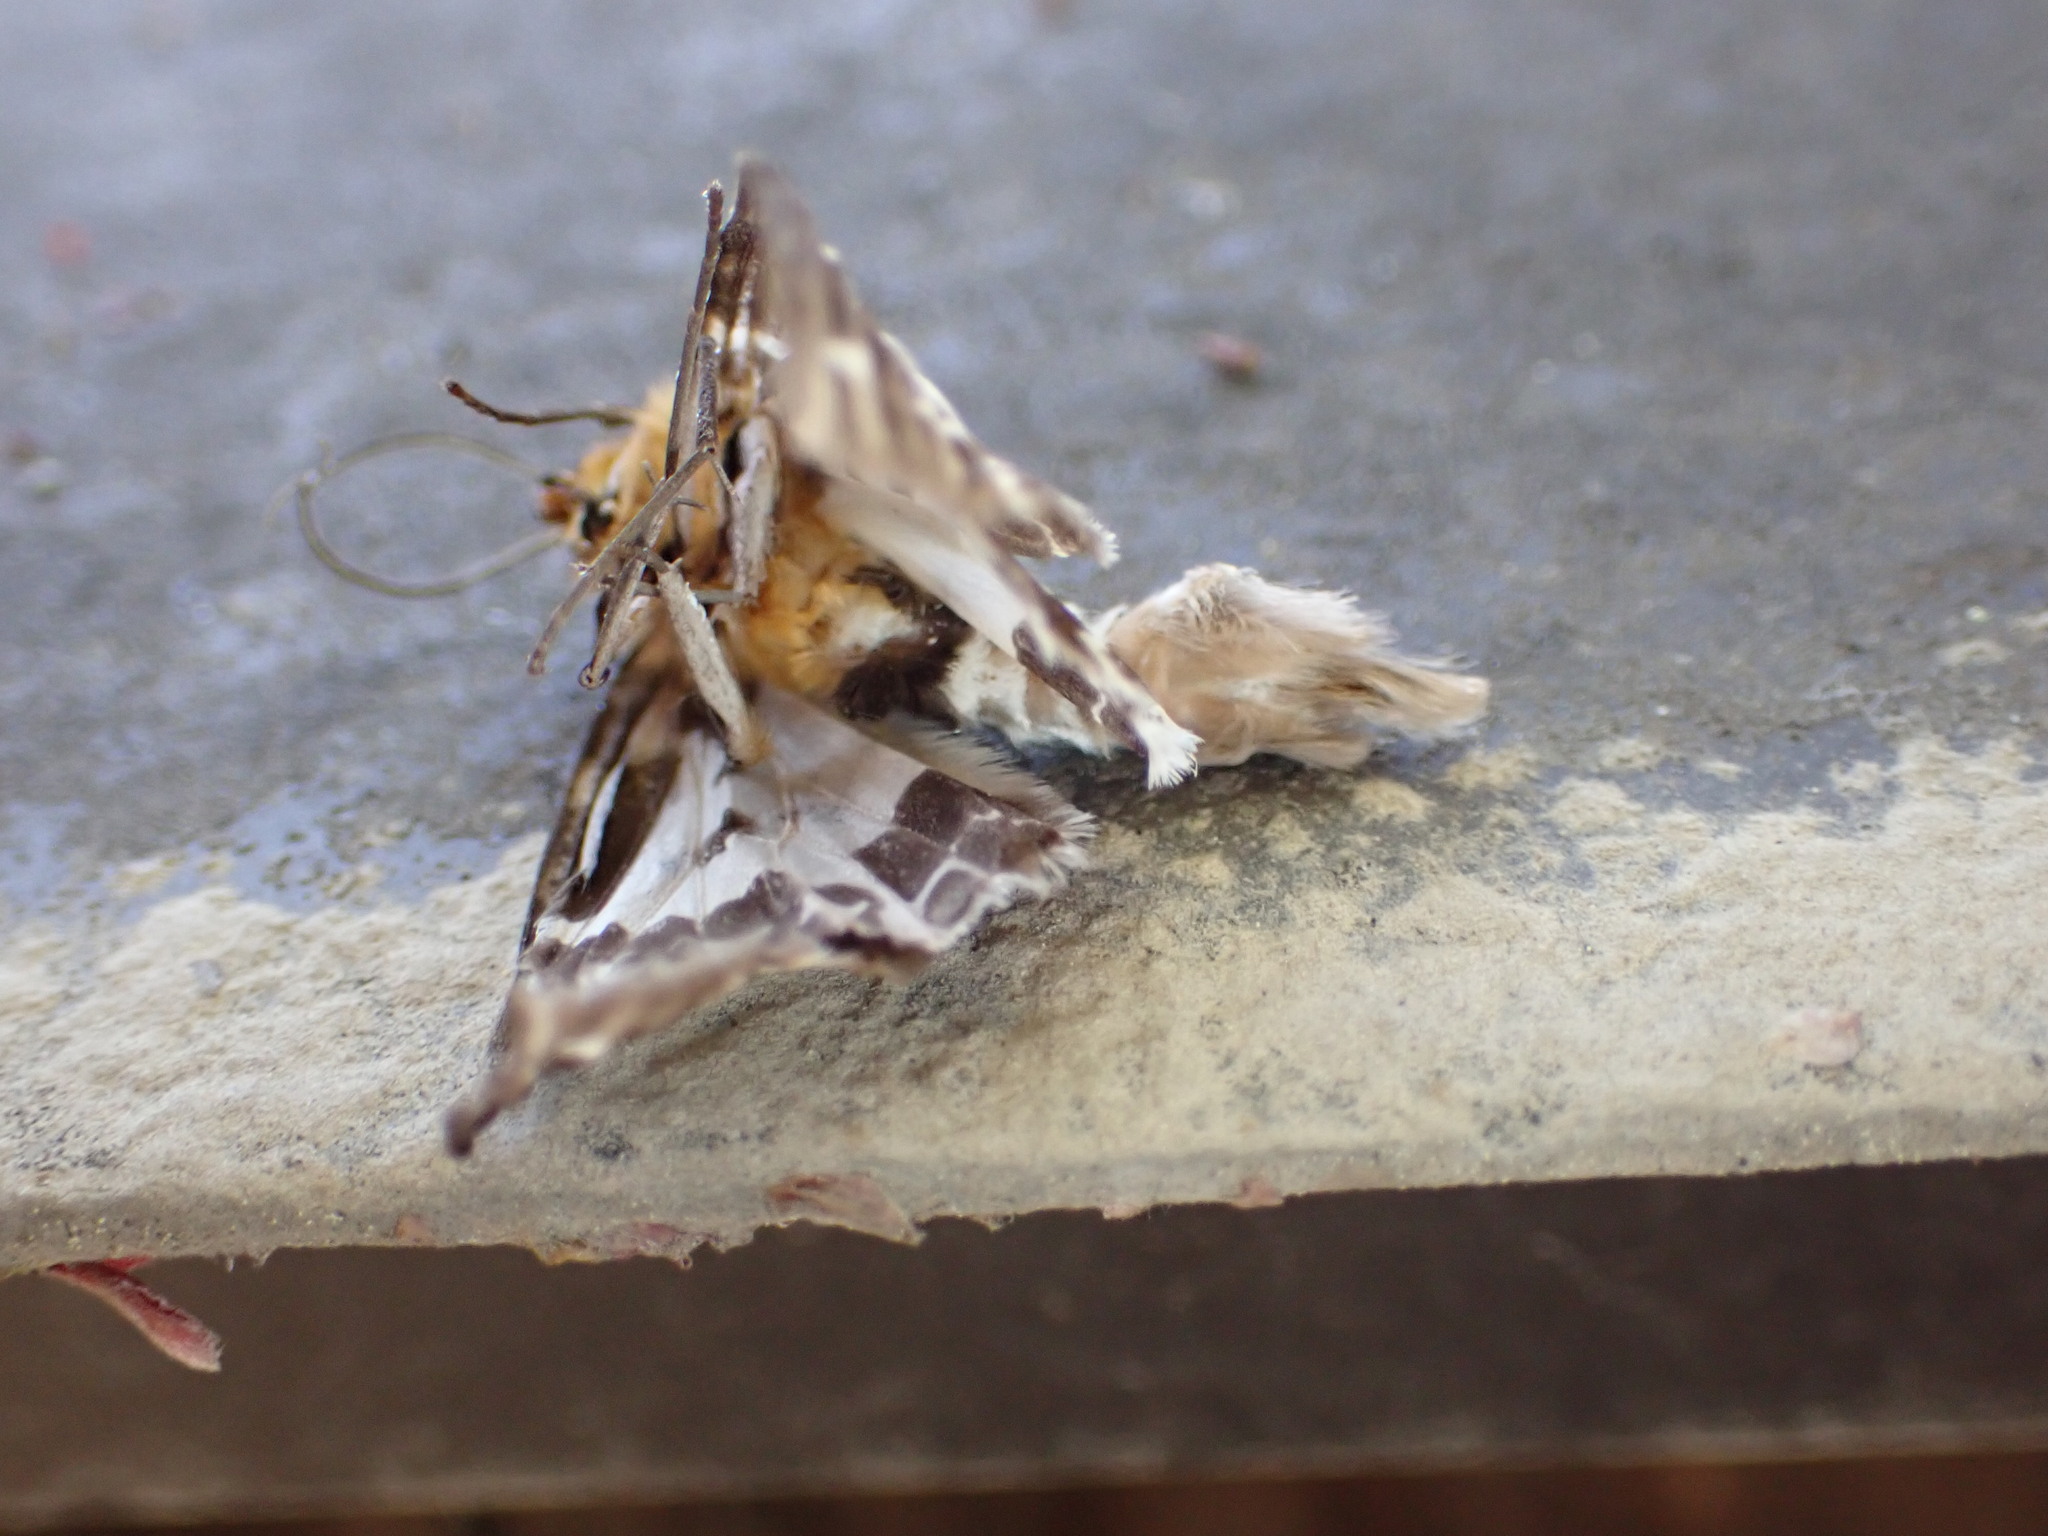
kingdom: Animalia
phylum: Arthropoda
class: Insecta
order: Lepidoptera
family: Geometridae
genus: Pogonopygia
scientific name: Pogonopygia nigralbata
